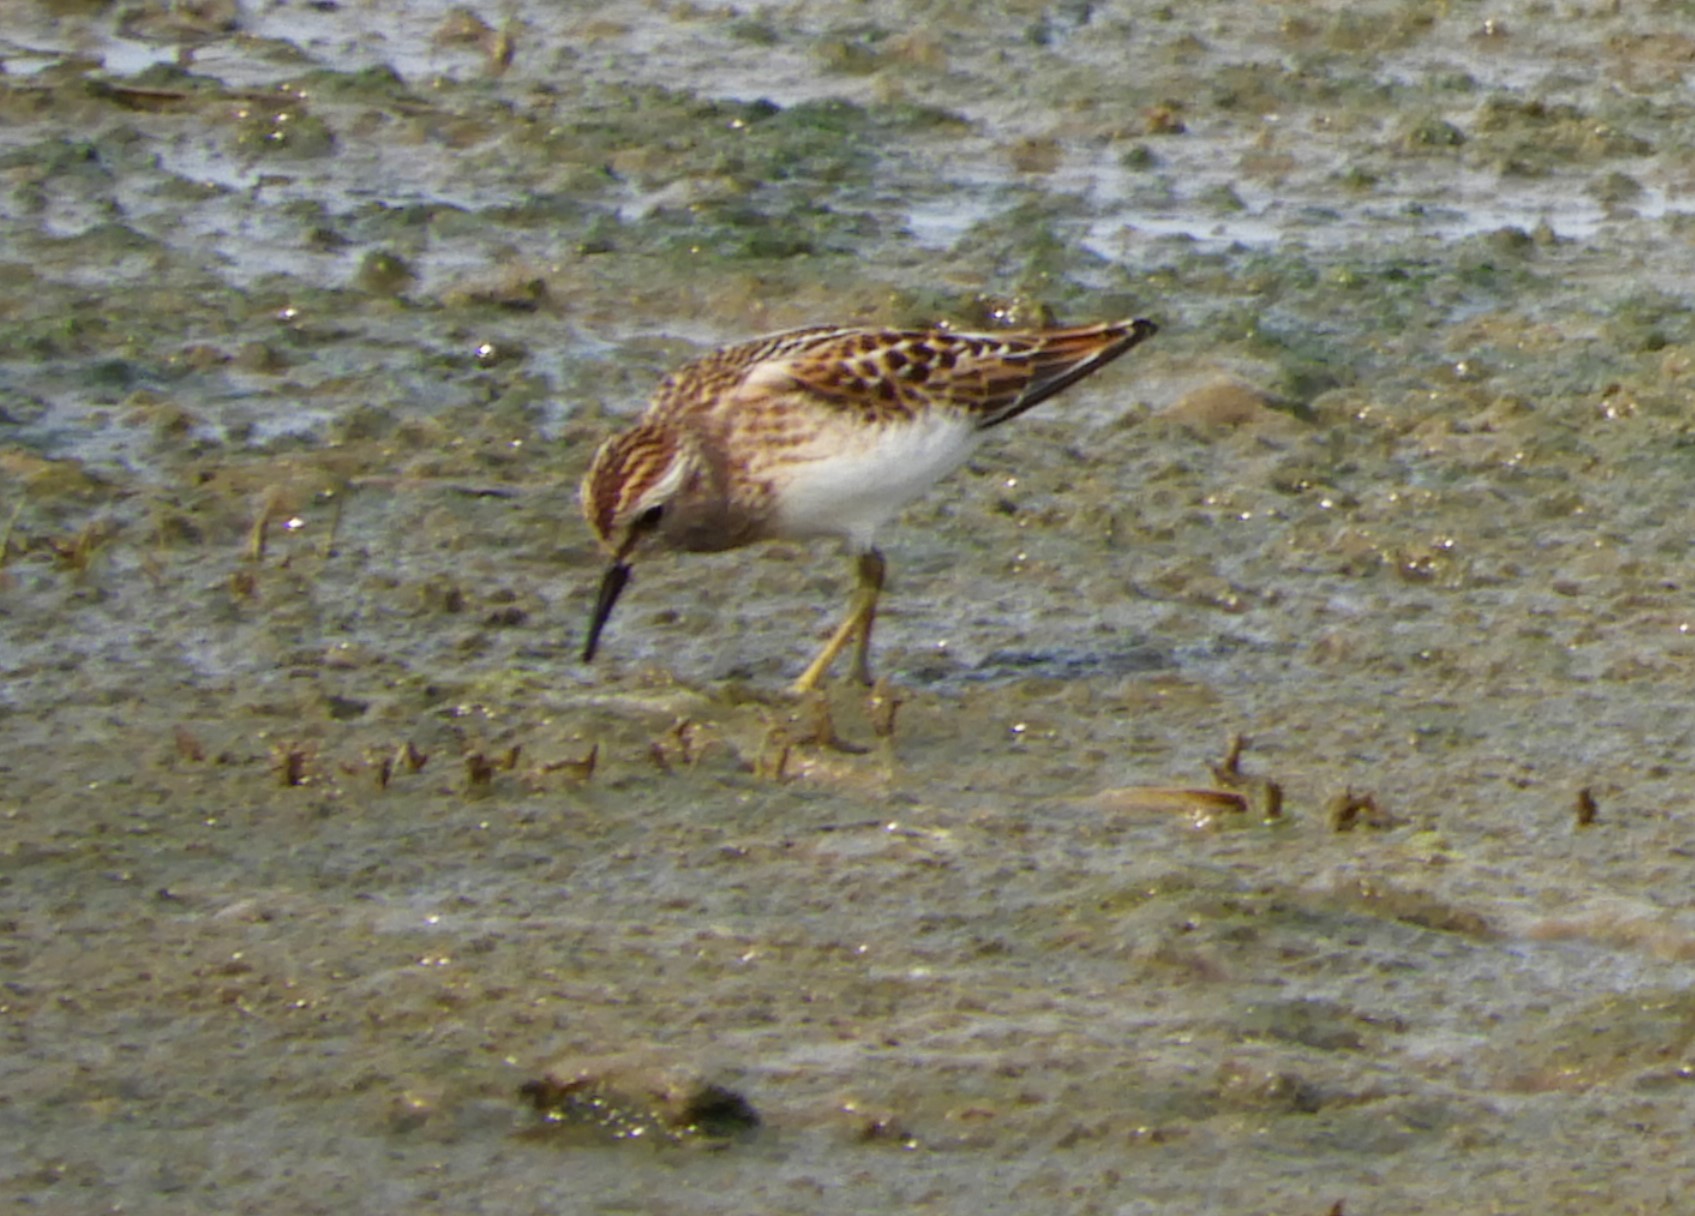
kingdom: Animalia
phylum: Chordata
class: Aves
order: Charadriiformes
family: Scolopacidae
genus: Calidris
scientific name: Calidris minutilla
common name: Least sandpiper
